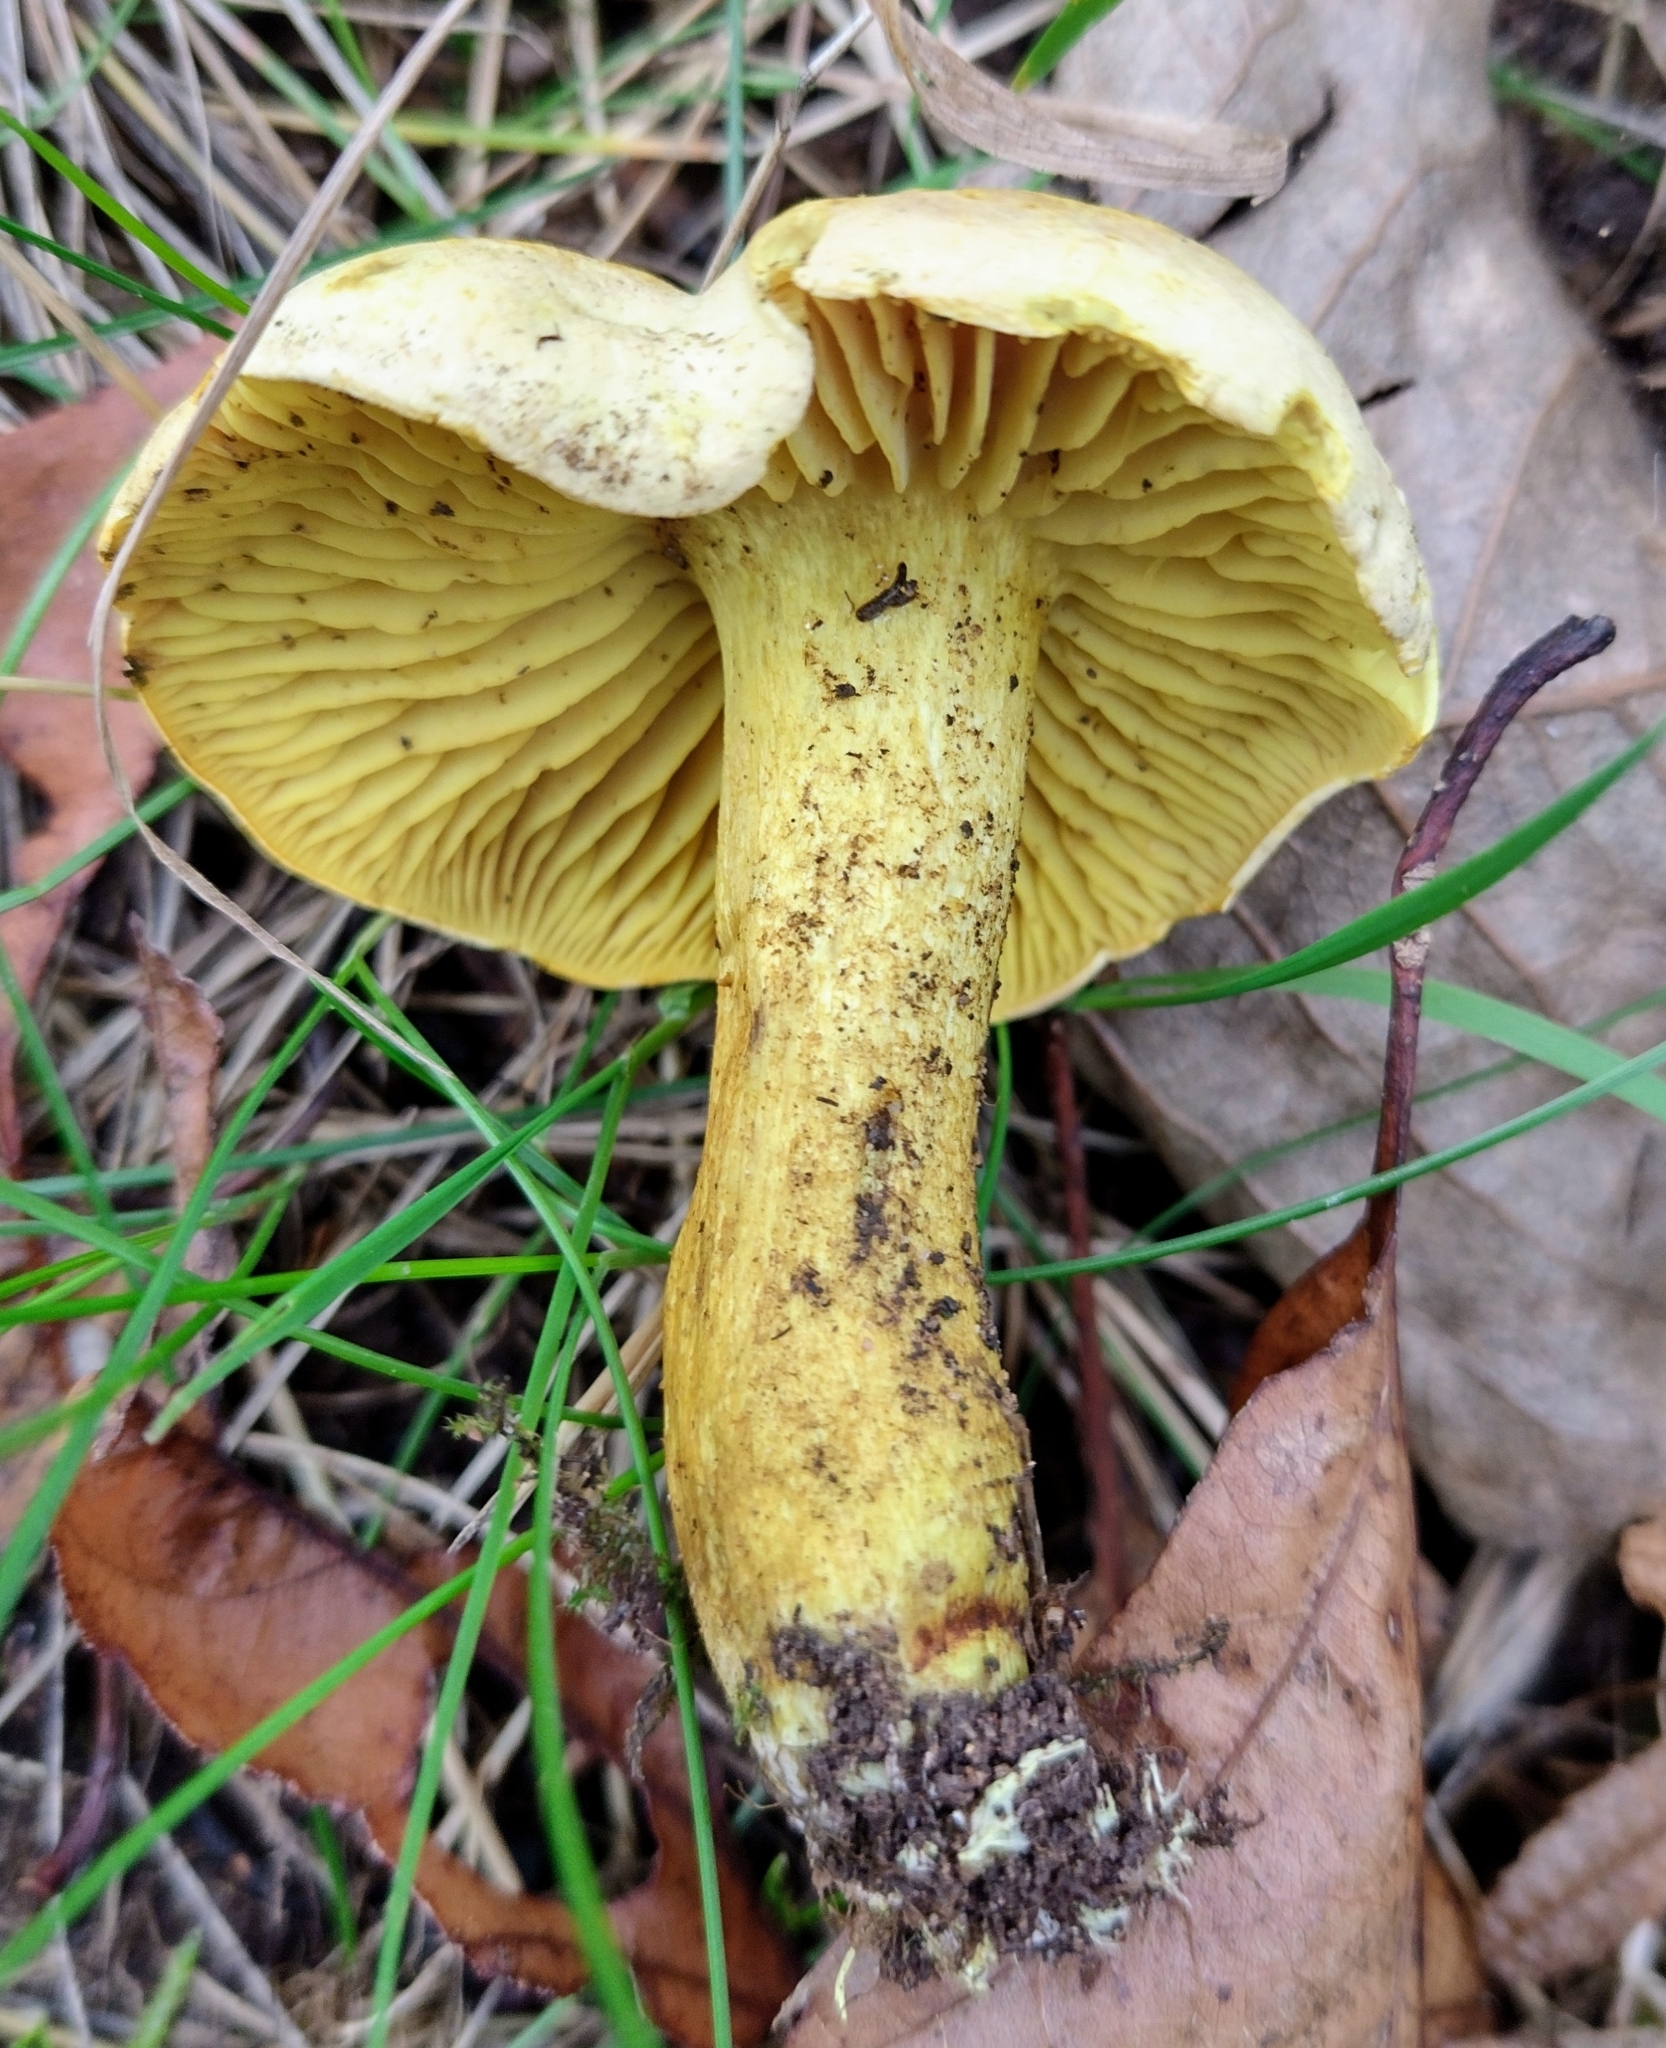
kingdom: Fungi
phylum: Basidiomycota
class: Agaricomycetes
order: Agaricales
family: Tricholomataceae
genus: Tricholoma
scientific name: Tricholoma sulphureum
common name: Stinky knight
